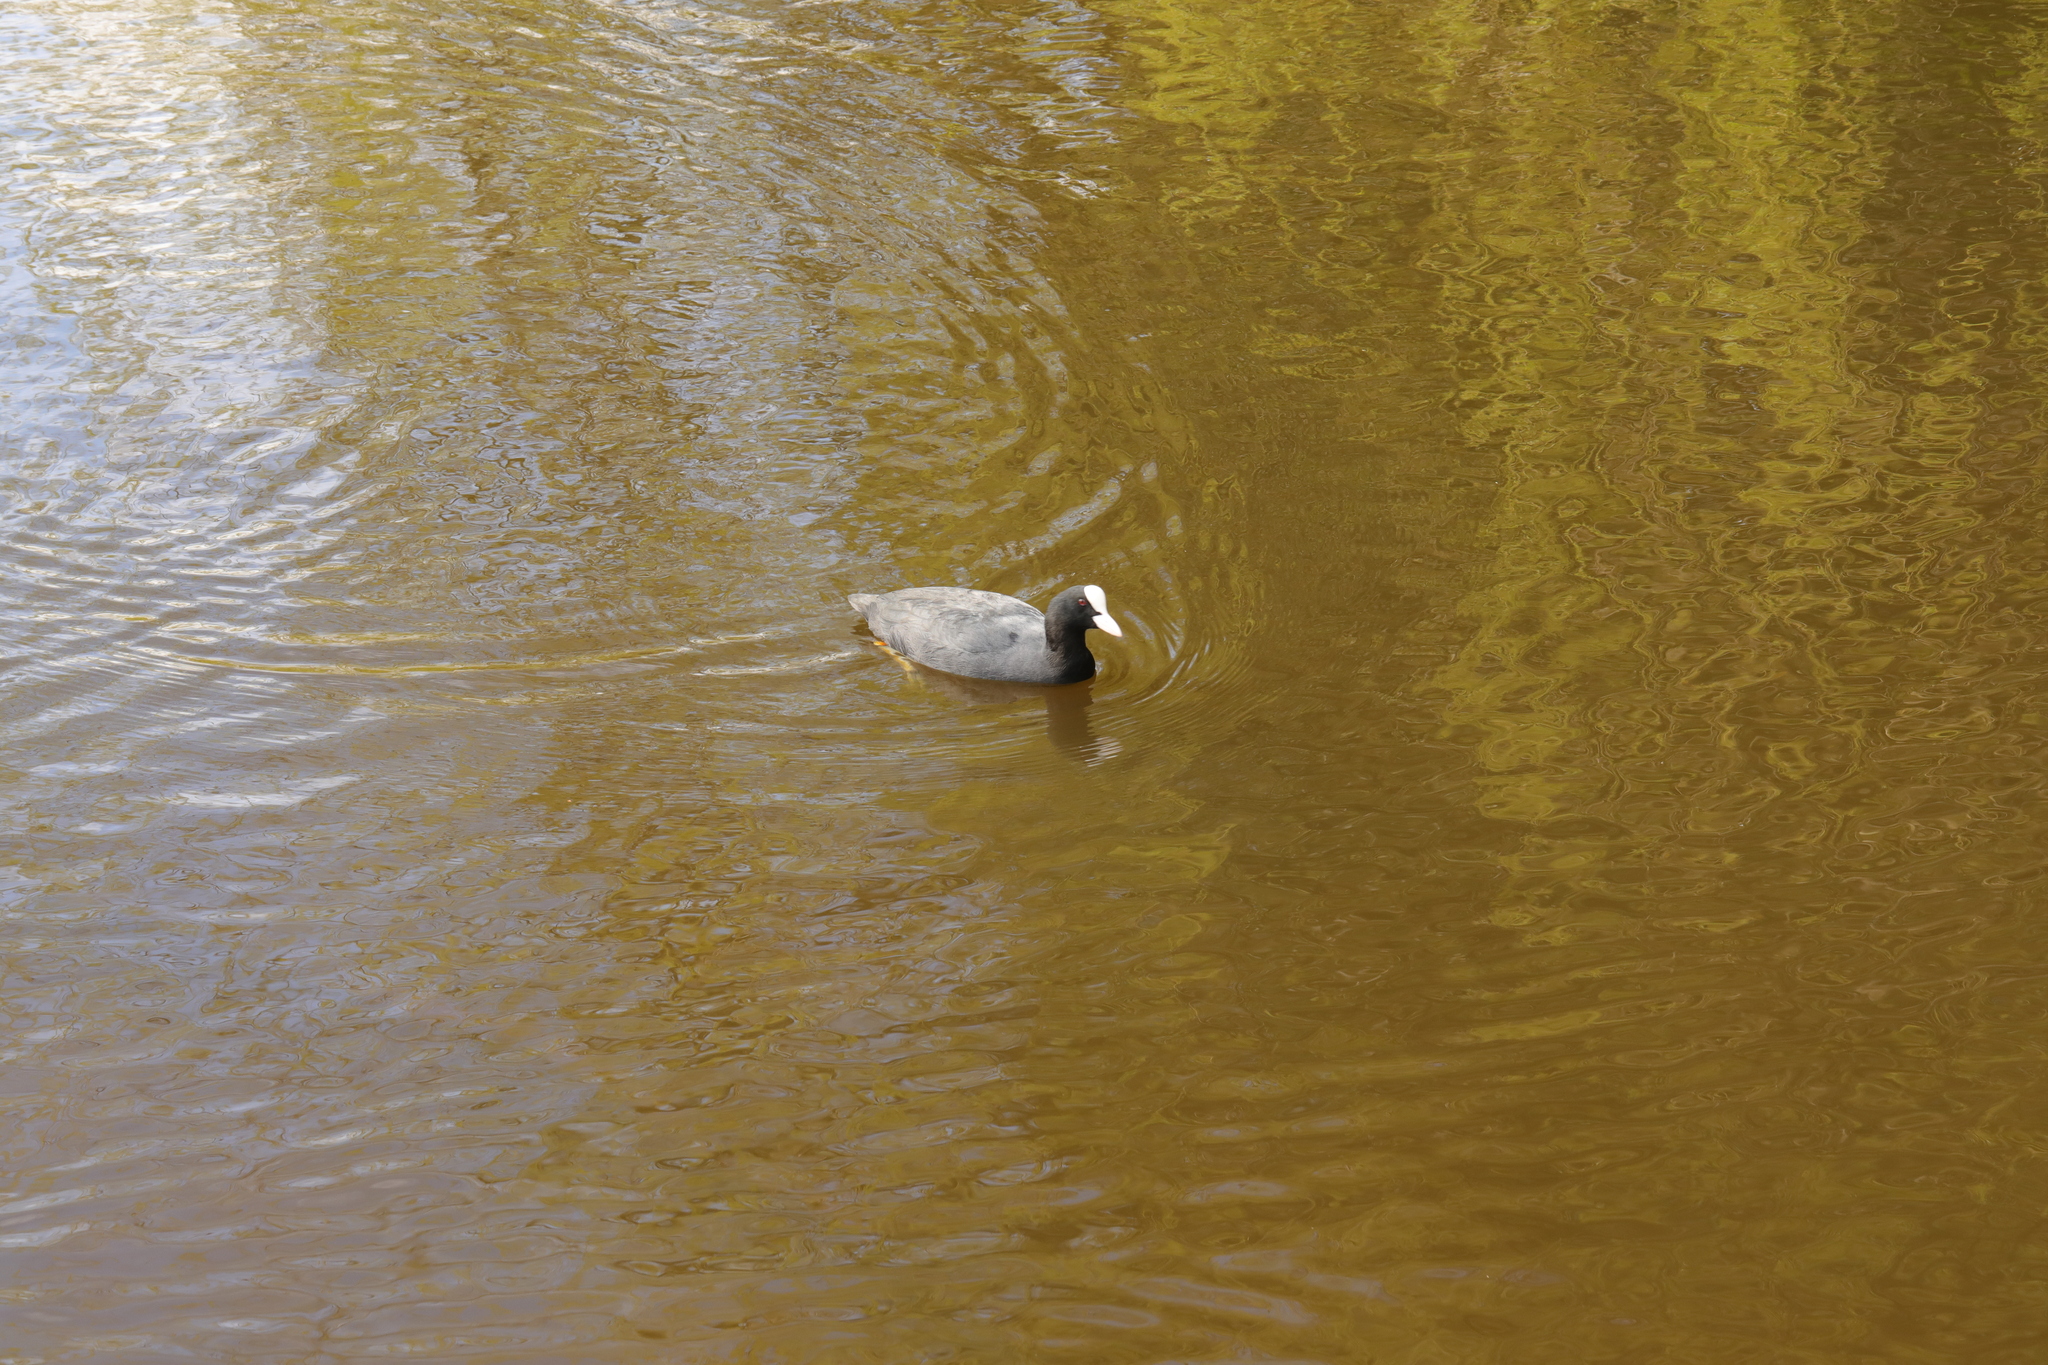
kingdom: Animalia
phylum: Chordata
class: Aves
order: Gruiformes
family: Rallidae
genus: Fulica
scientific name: Fulica atra
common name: Eurasian coot
